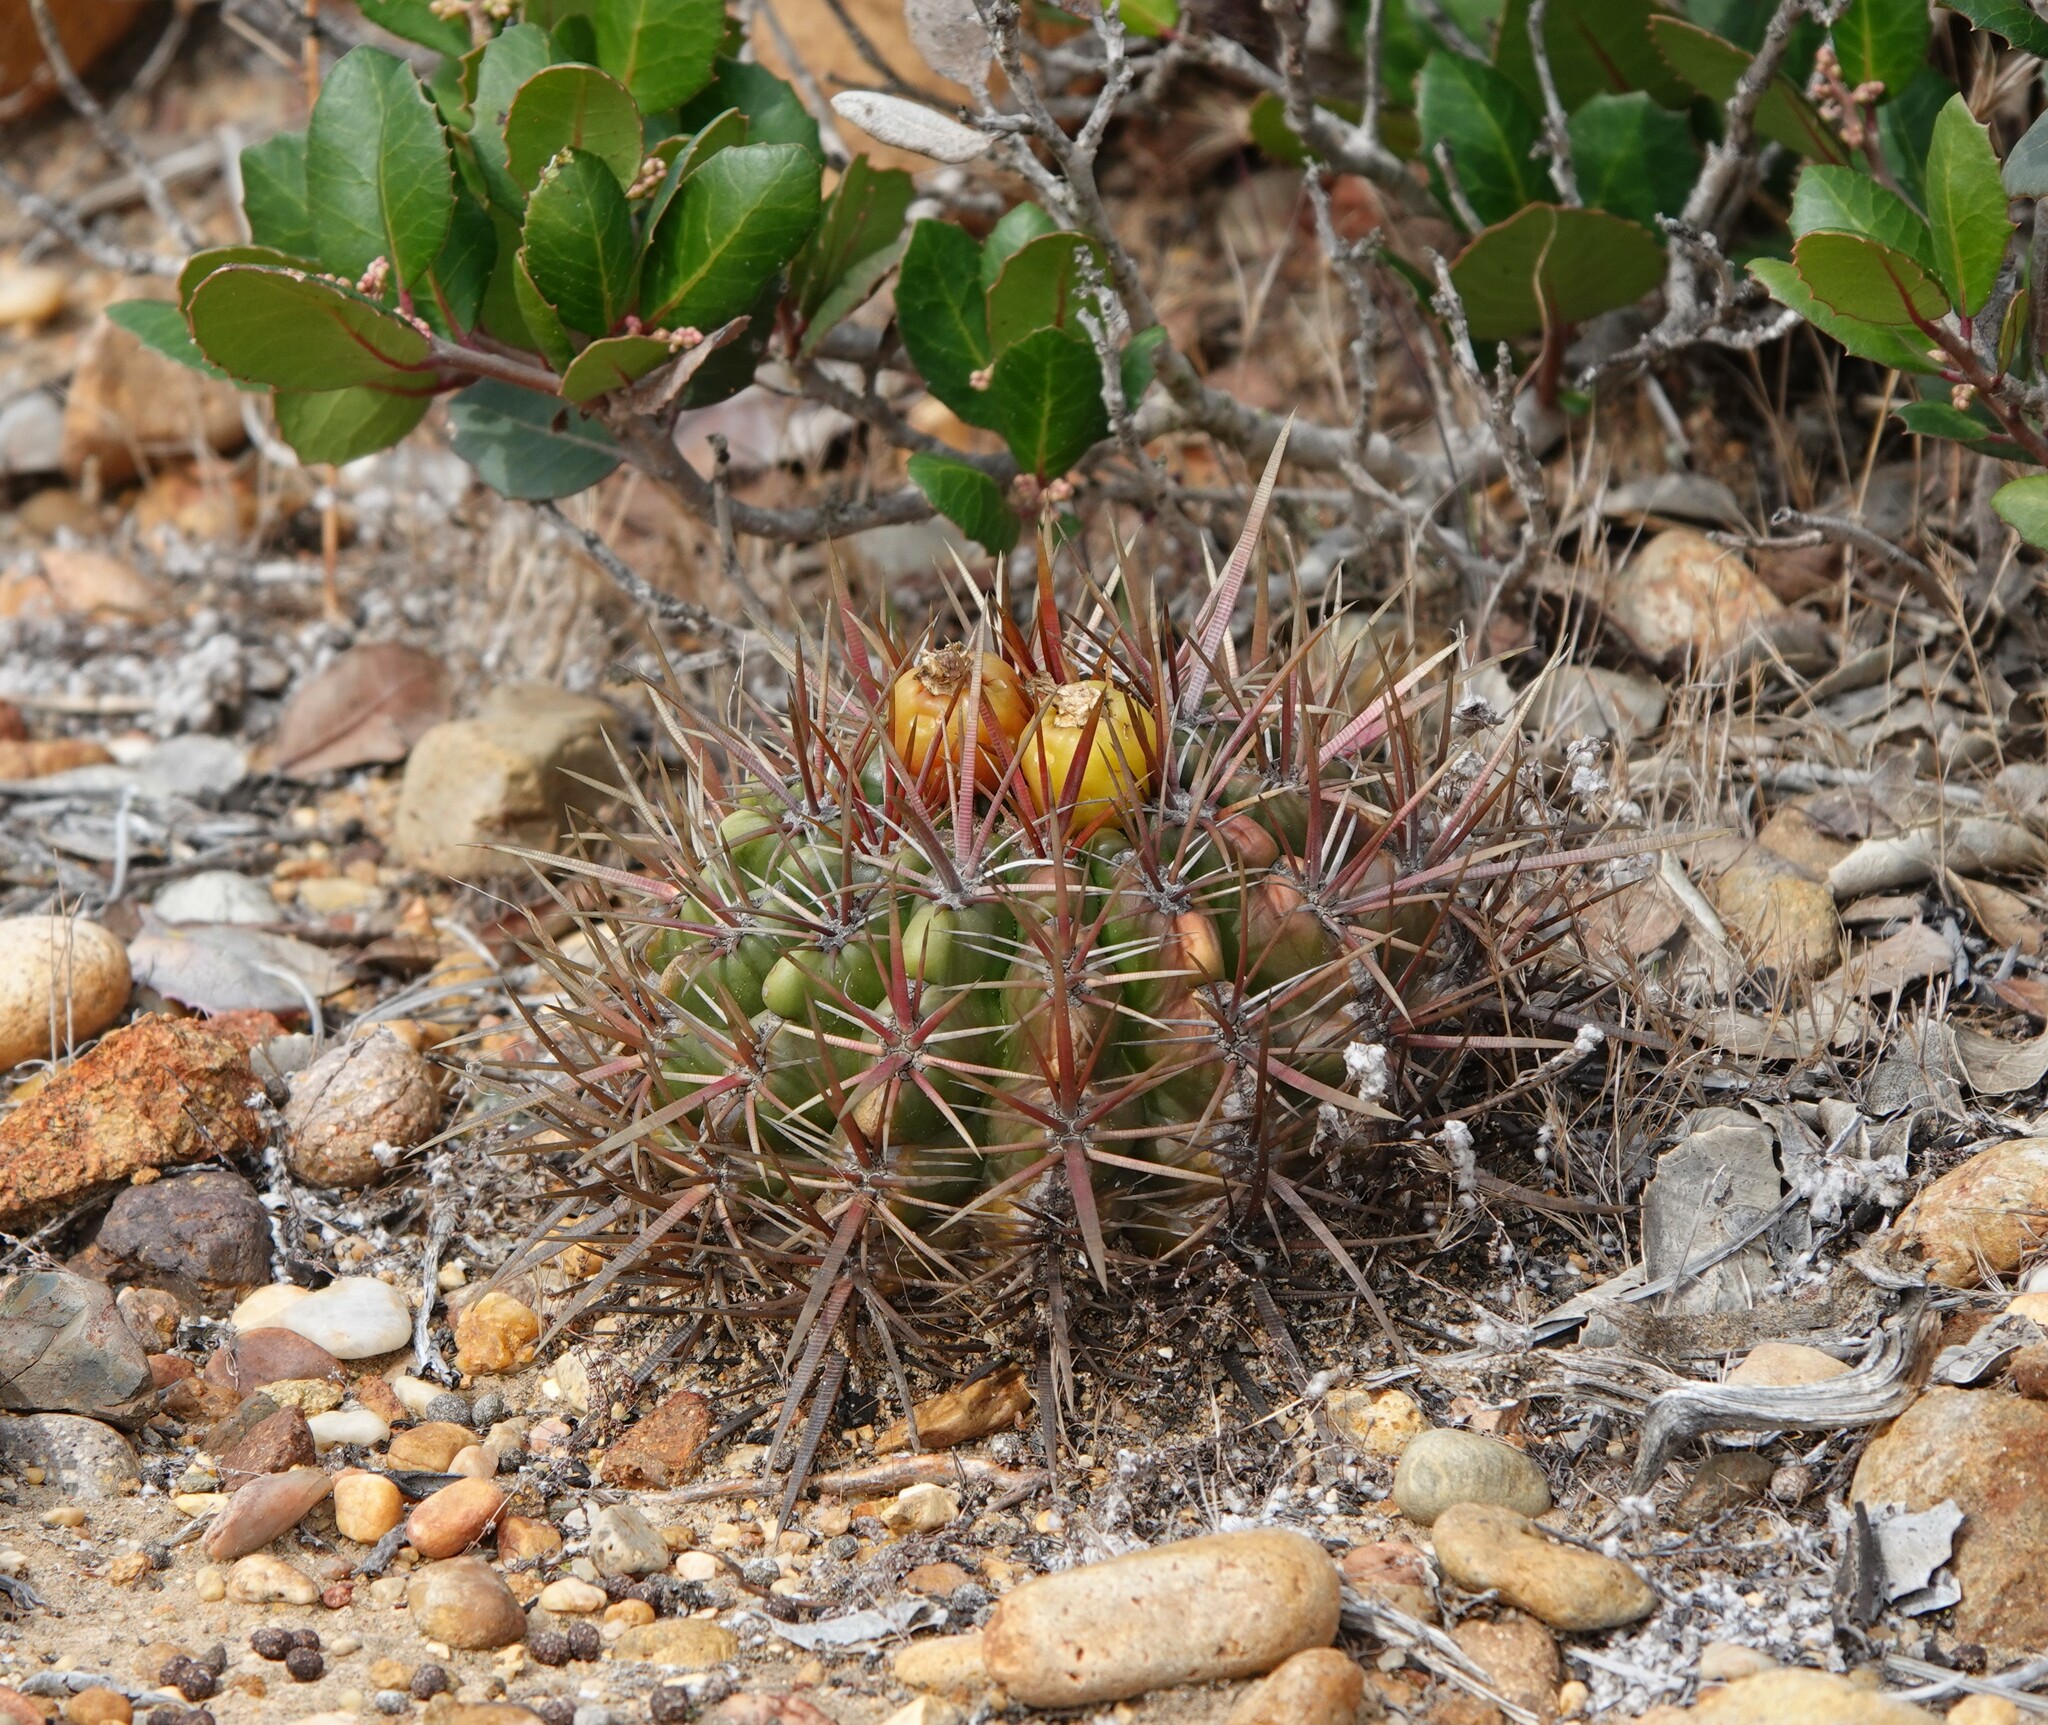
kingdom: Plantae
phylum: Tracheophyta
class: Magnoliopsida
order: Caryophyllales
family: Cactaceae
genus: Ferocactus
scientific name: Ferocactus viridescens
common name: San diego barrel cactus
